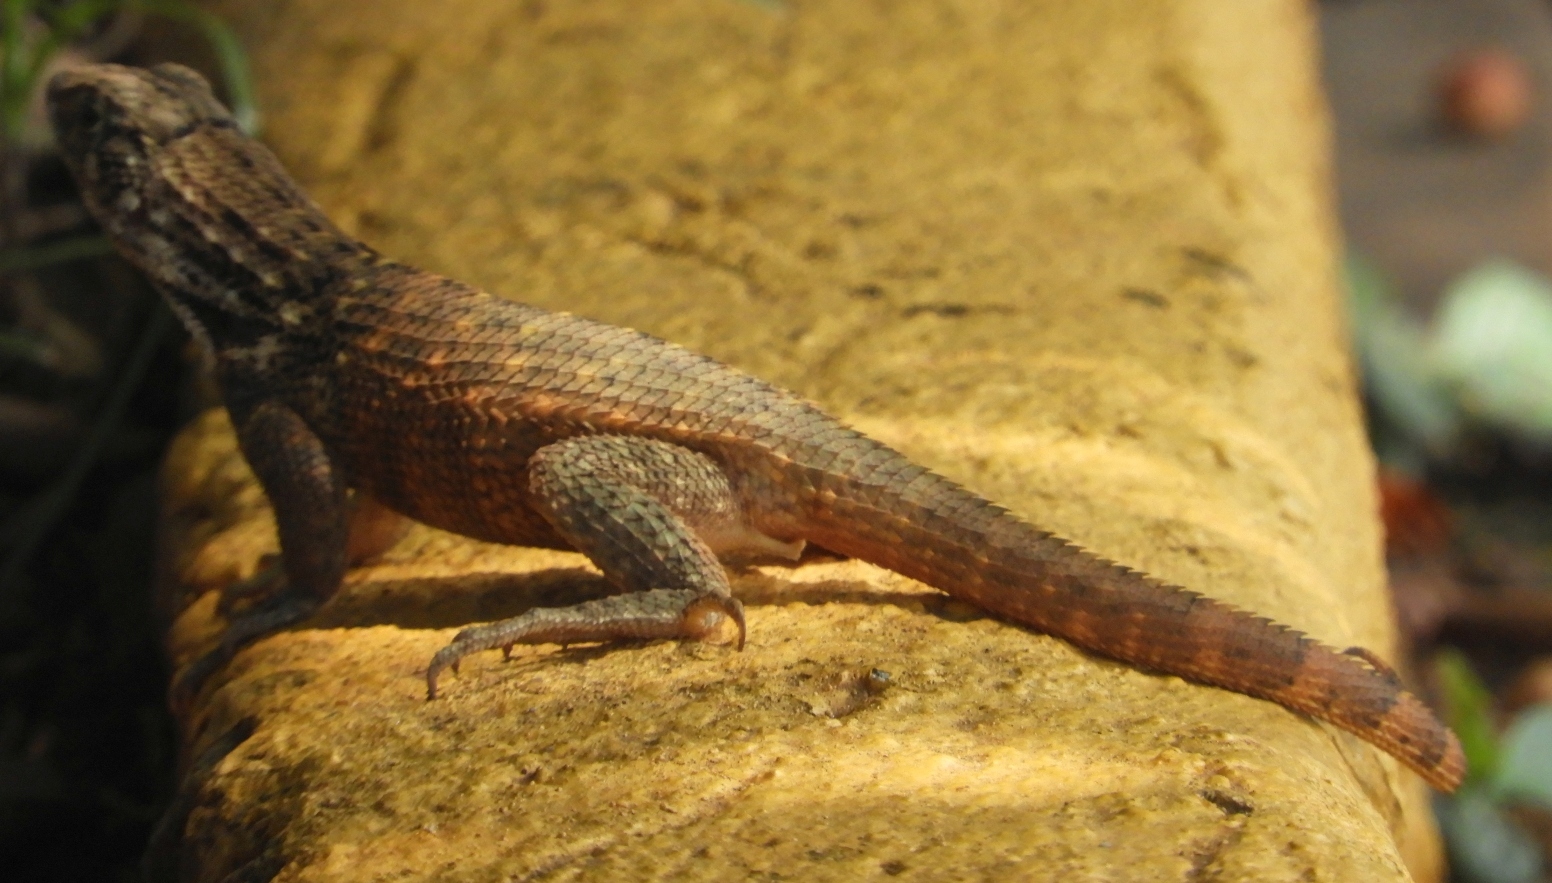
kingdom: Animalia
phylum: Chordata
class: Squamata
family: Leiocephalidae
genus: Leiocephalus
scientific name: Leiocephalus carinatus
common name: Northern curly-tailed lizard
